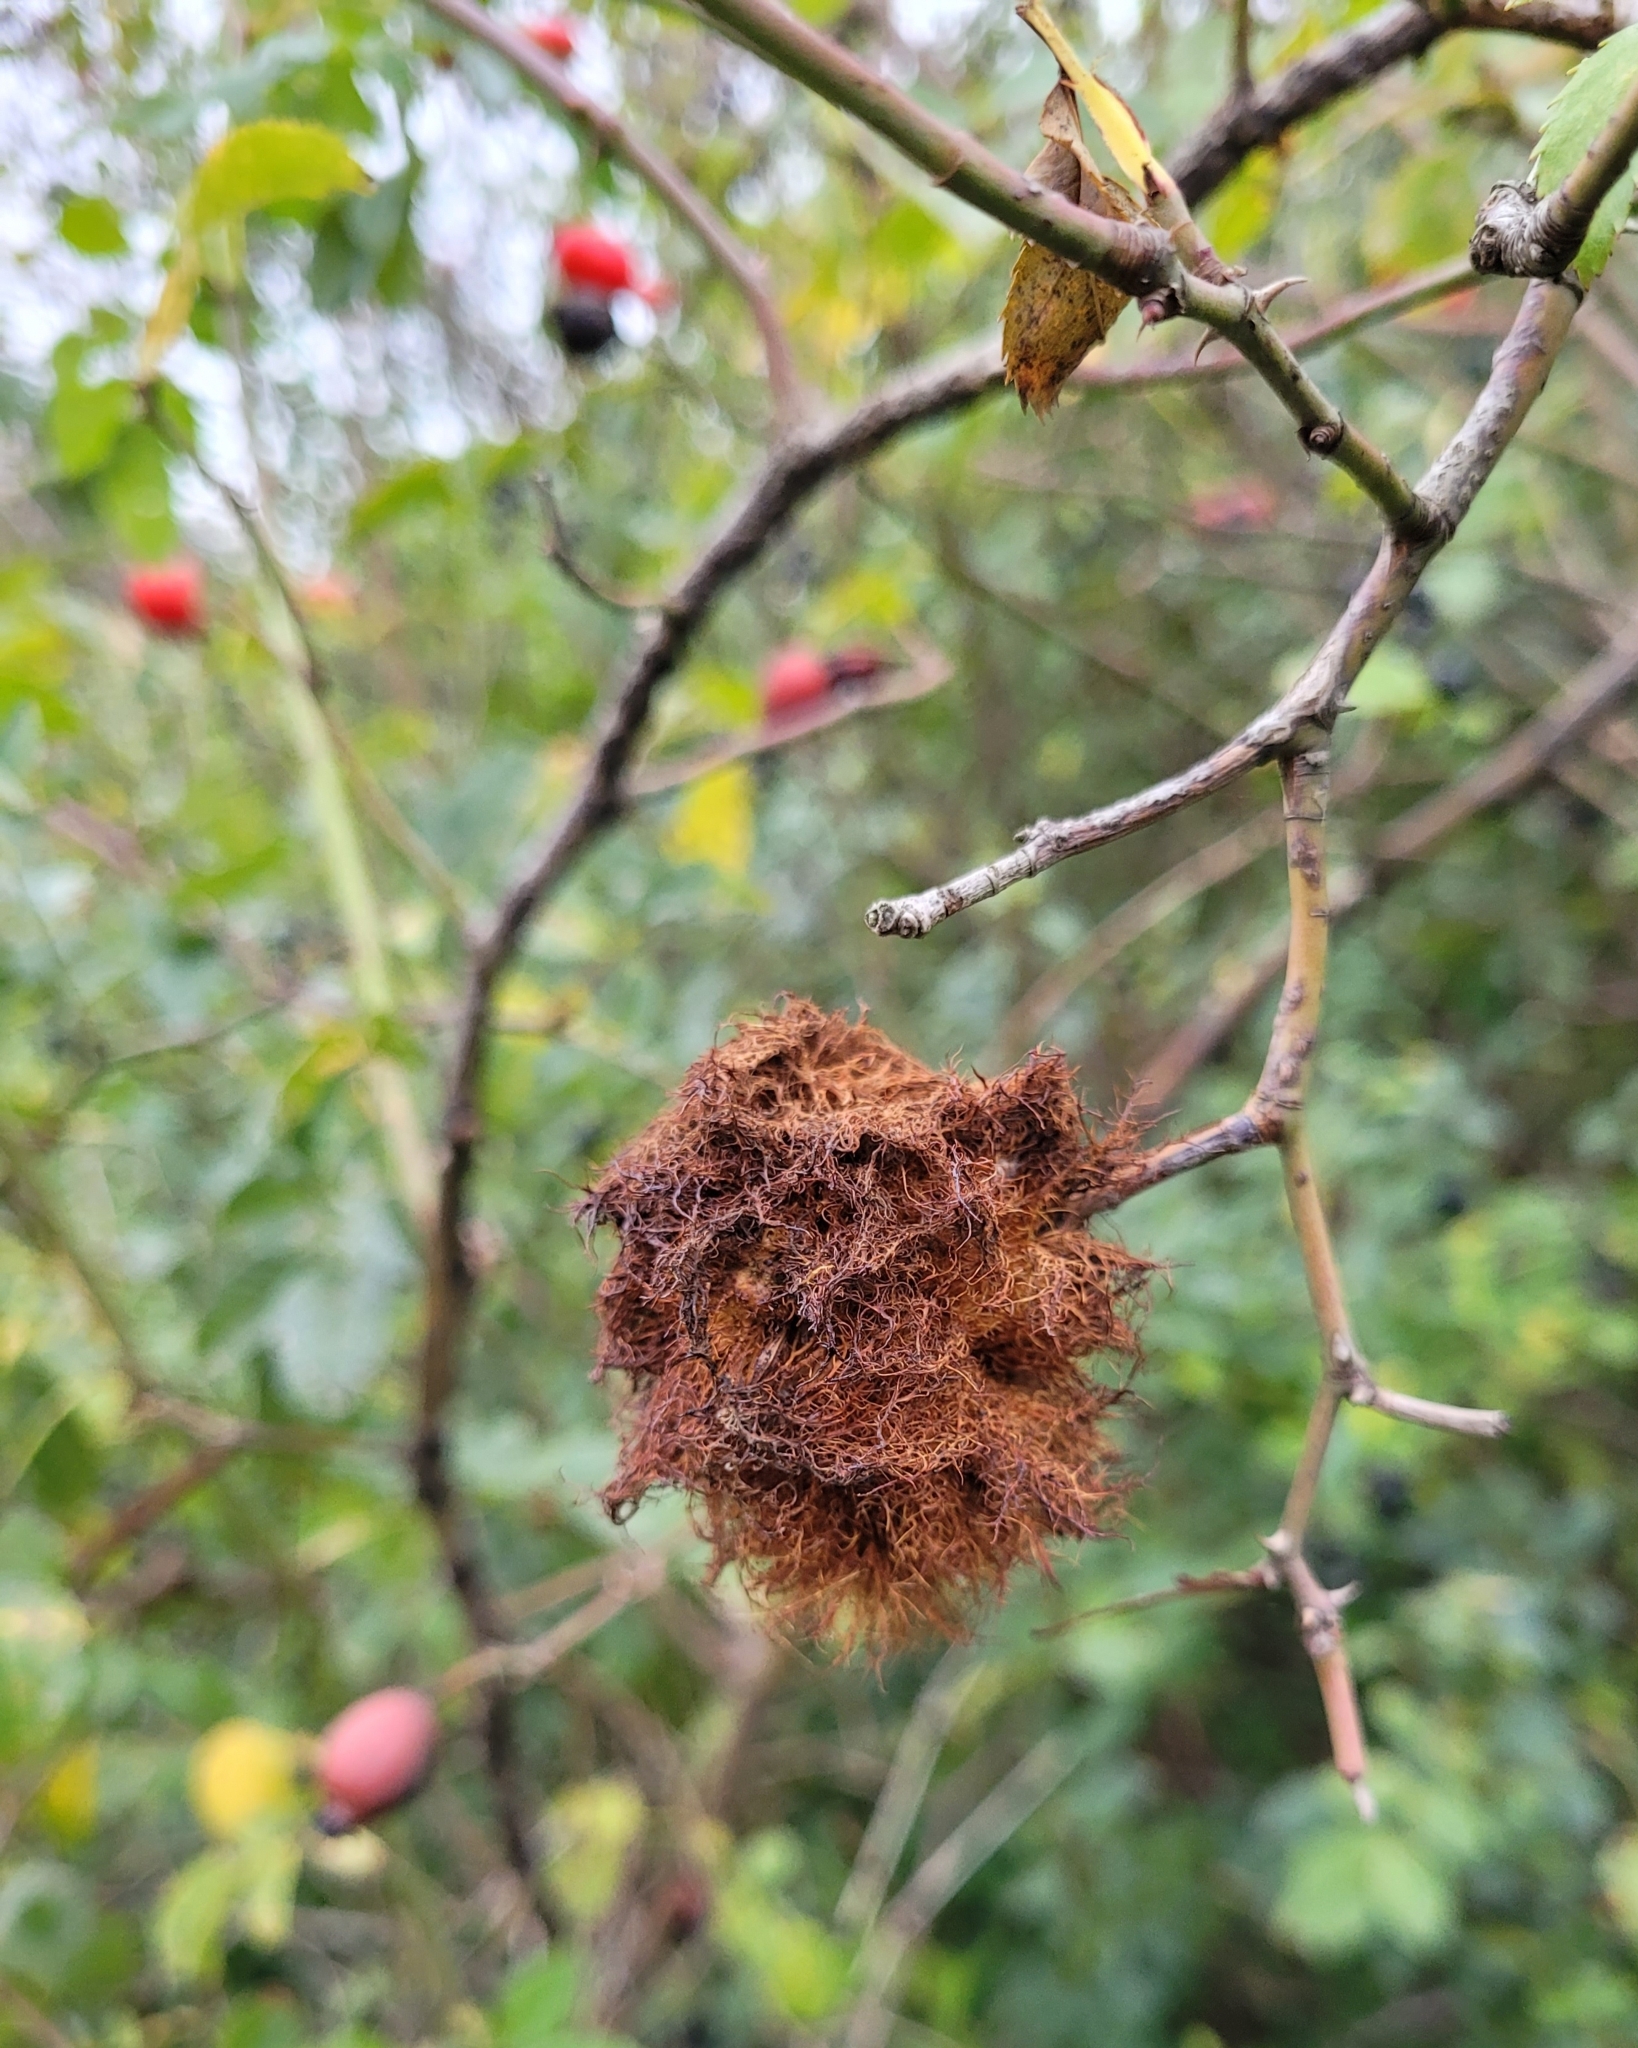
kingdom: Animalia
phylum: Arthropoda
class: Insecta
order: Hymenoptera
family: Cynipidae
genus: Diplolepis
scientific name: Diplolepis rosae
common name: Bedeguar gall
